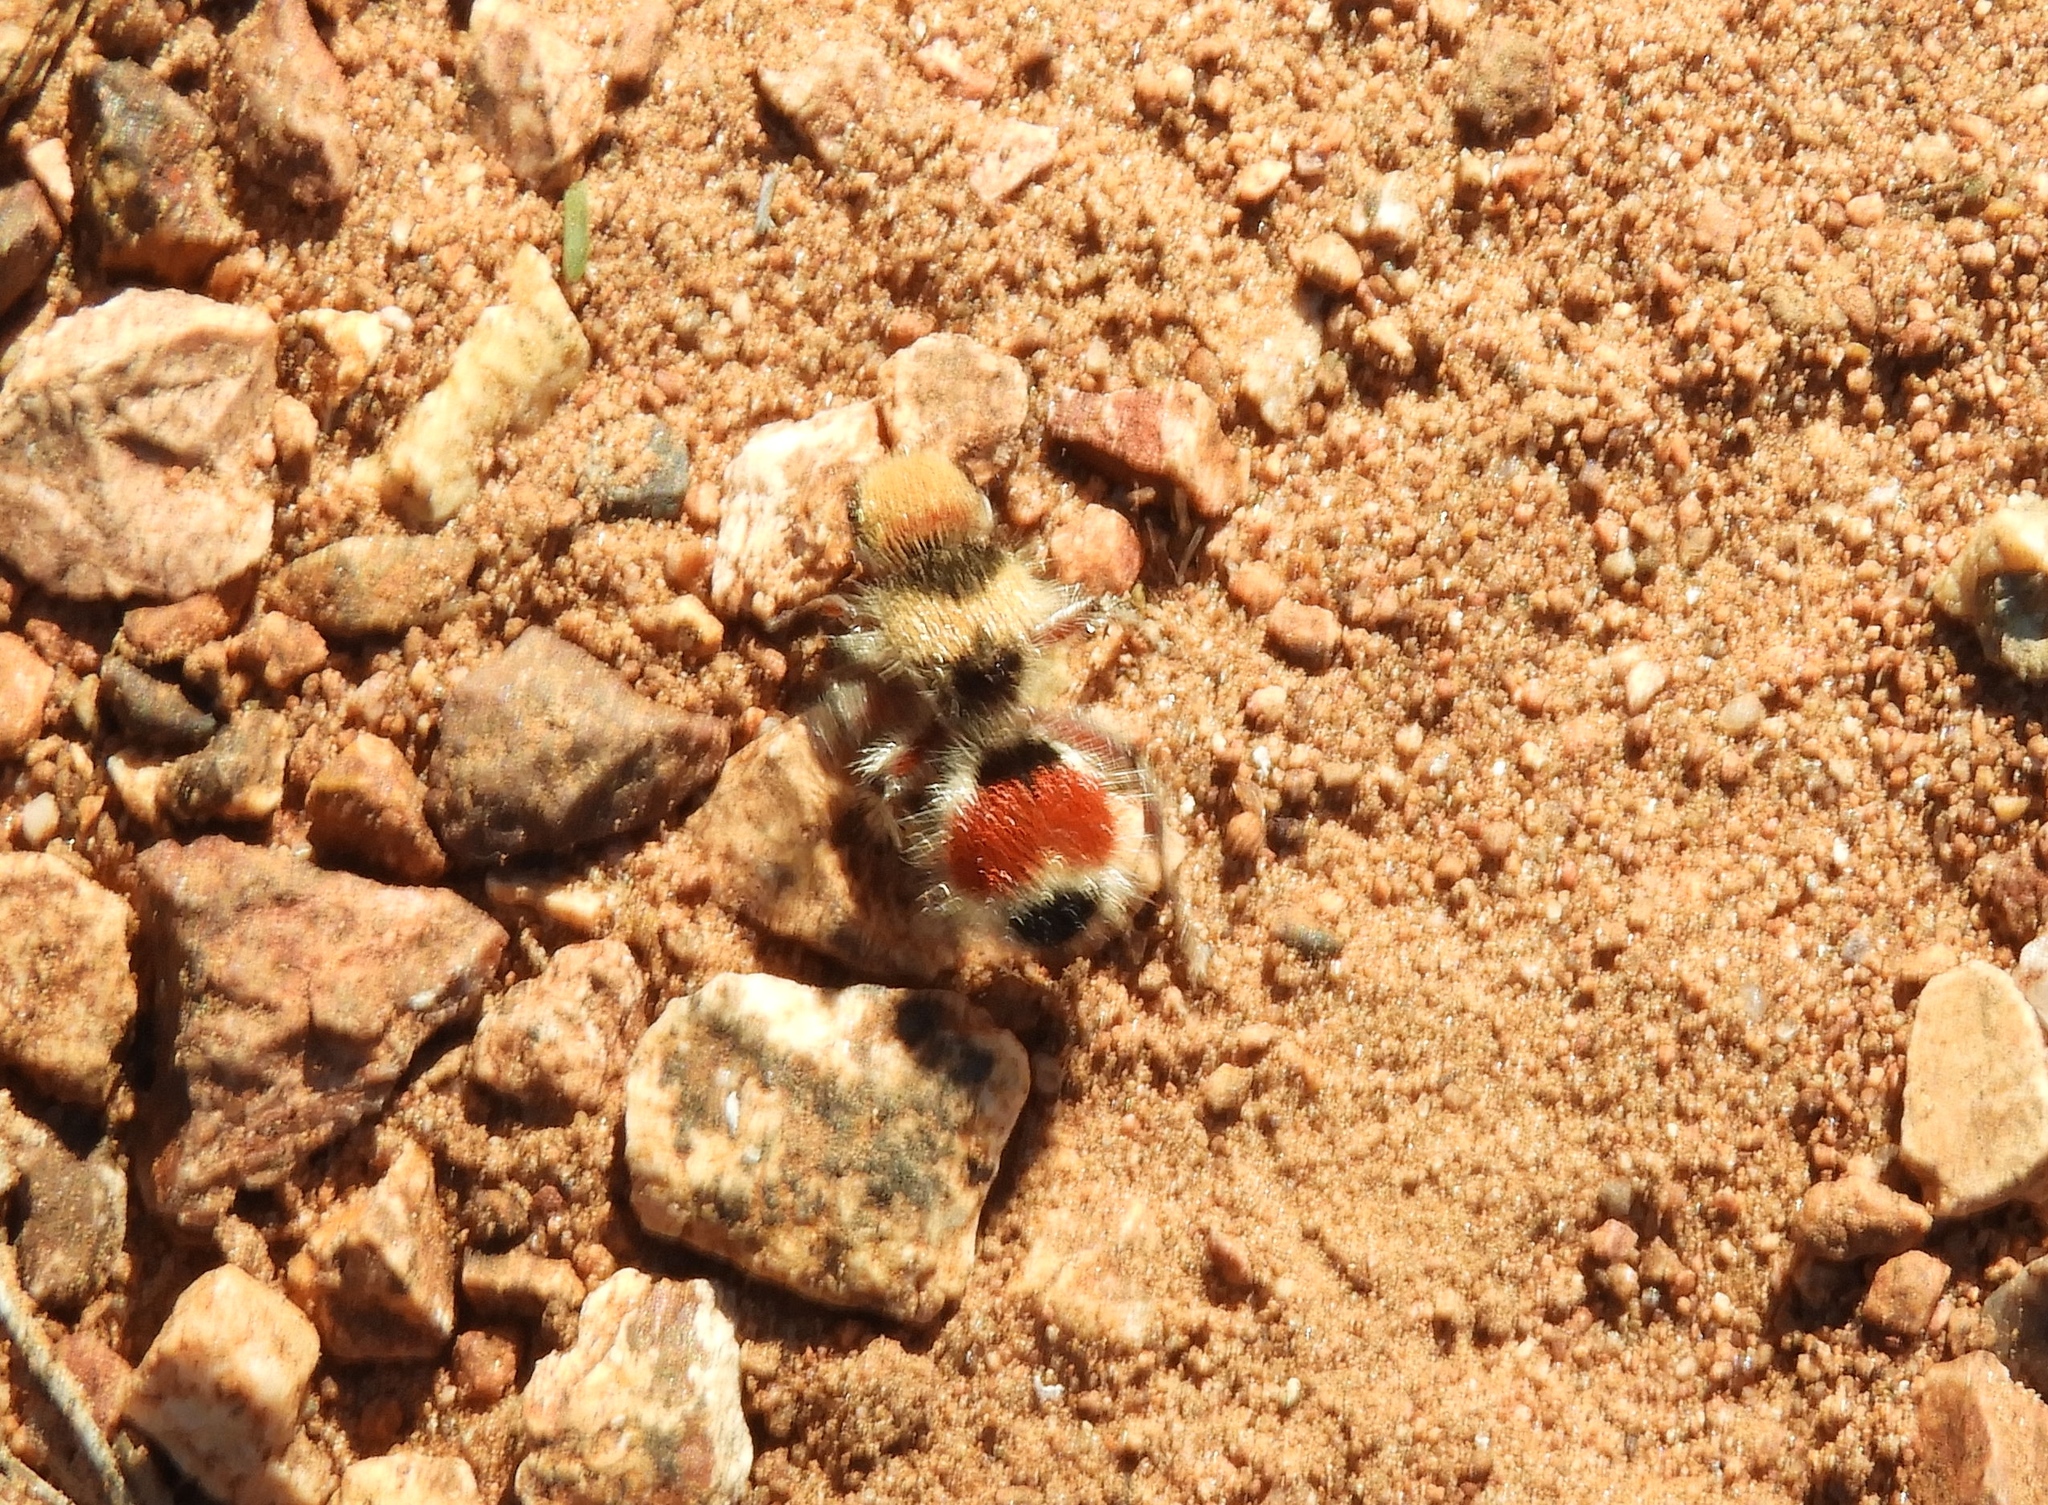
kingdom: Animalia
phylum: Arthropoda
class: Insecta
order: Hymenoptera
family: Mutillidae
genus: Dasymutilla
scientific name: Dasymutilla foxi
